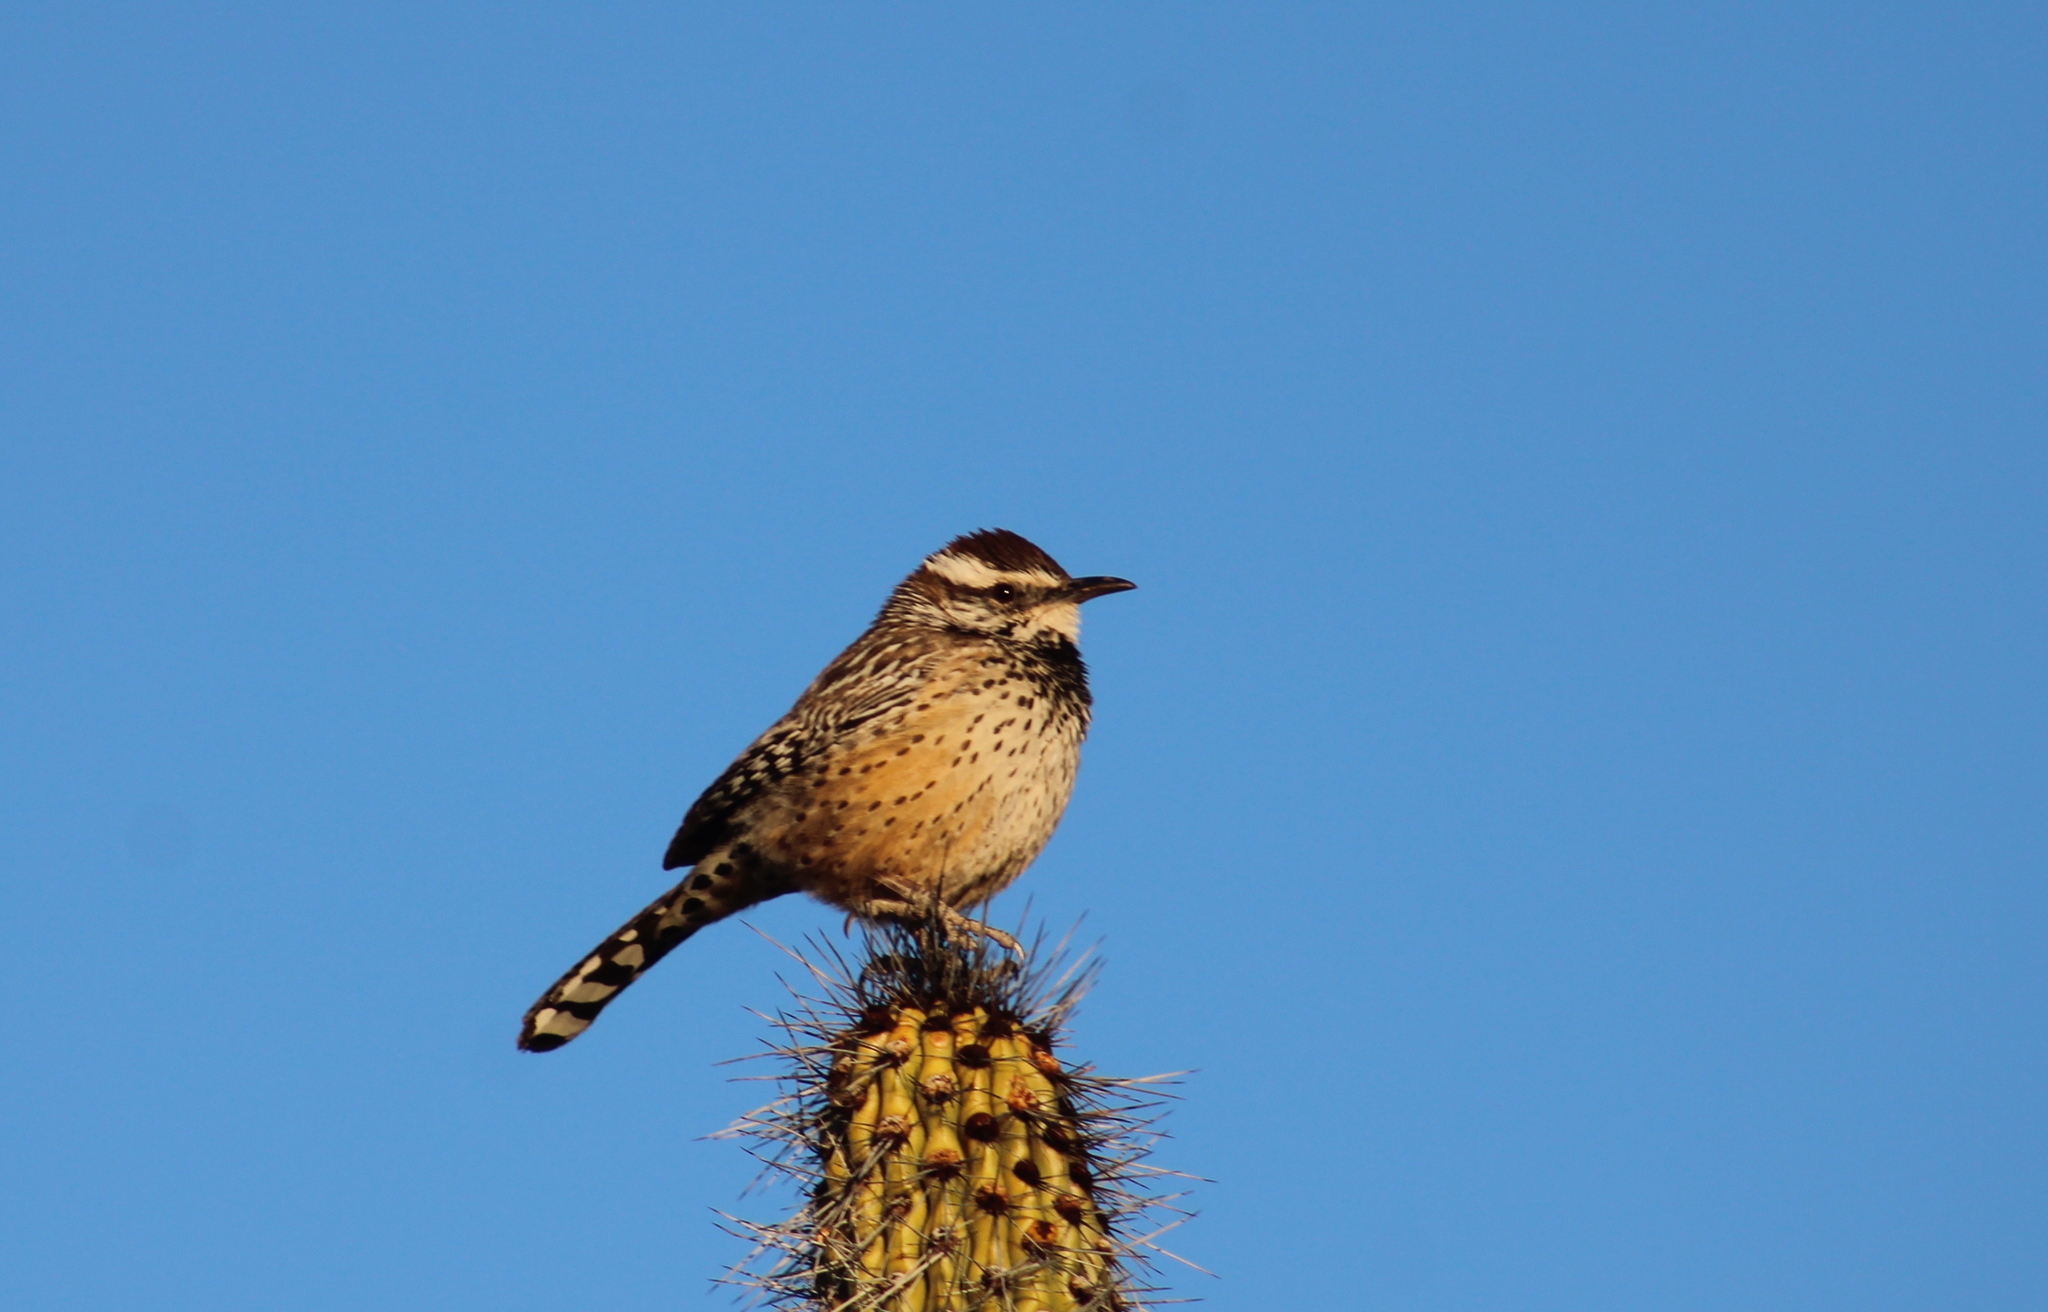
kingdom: Animalia
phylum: Chordata
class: Aves
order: Passeriformes
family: Troglodytidae
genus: Campylorhynchus
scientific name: Campylorhynchus brunneicapillus
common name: Cactus wren
